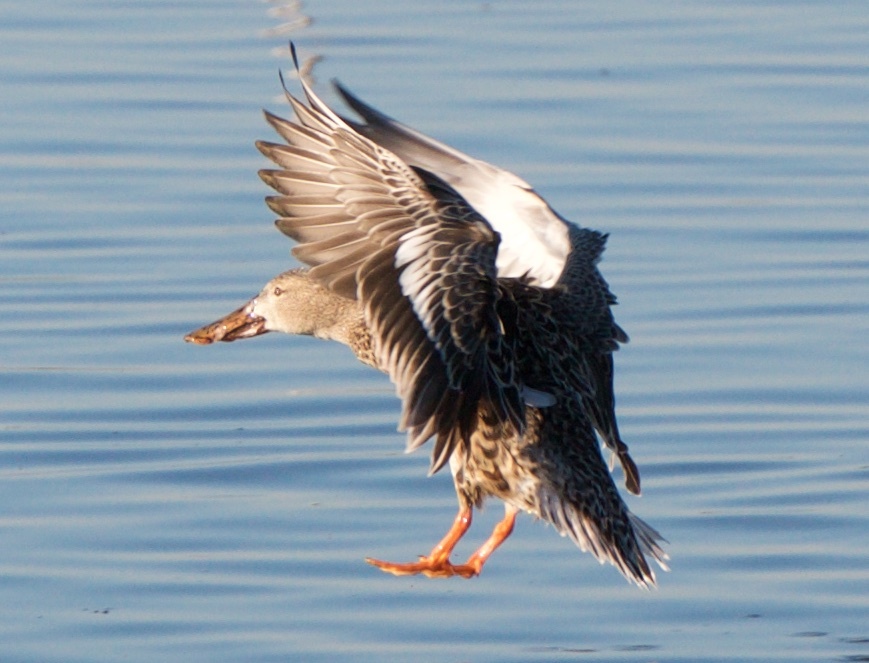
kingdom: Animalia
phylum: Chordata
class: Aves
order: Anseriformes
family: Anatidae
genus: Spatula
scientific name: Spatula clypeata
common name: Northern shoveler
